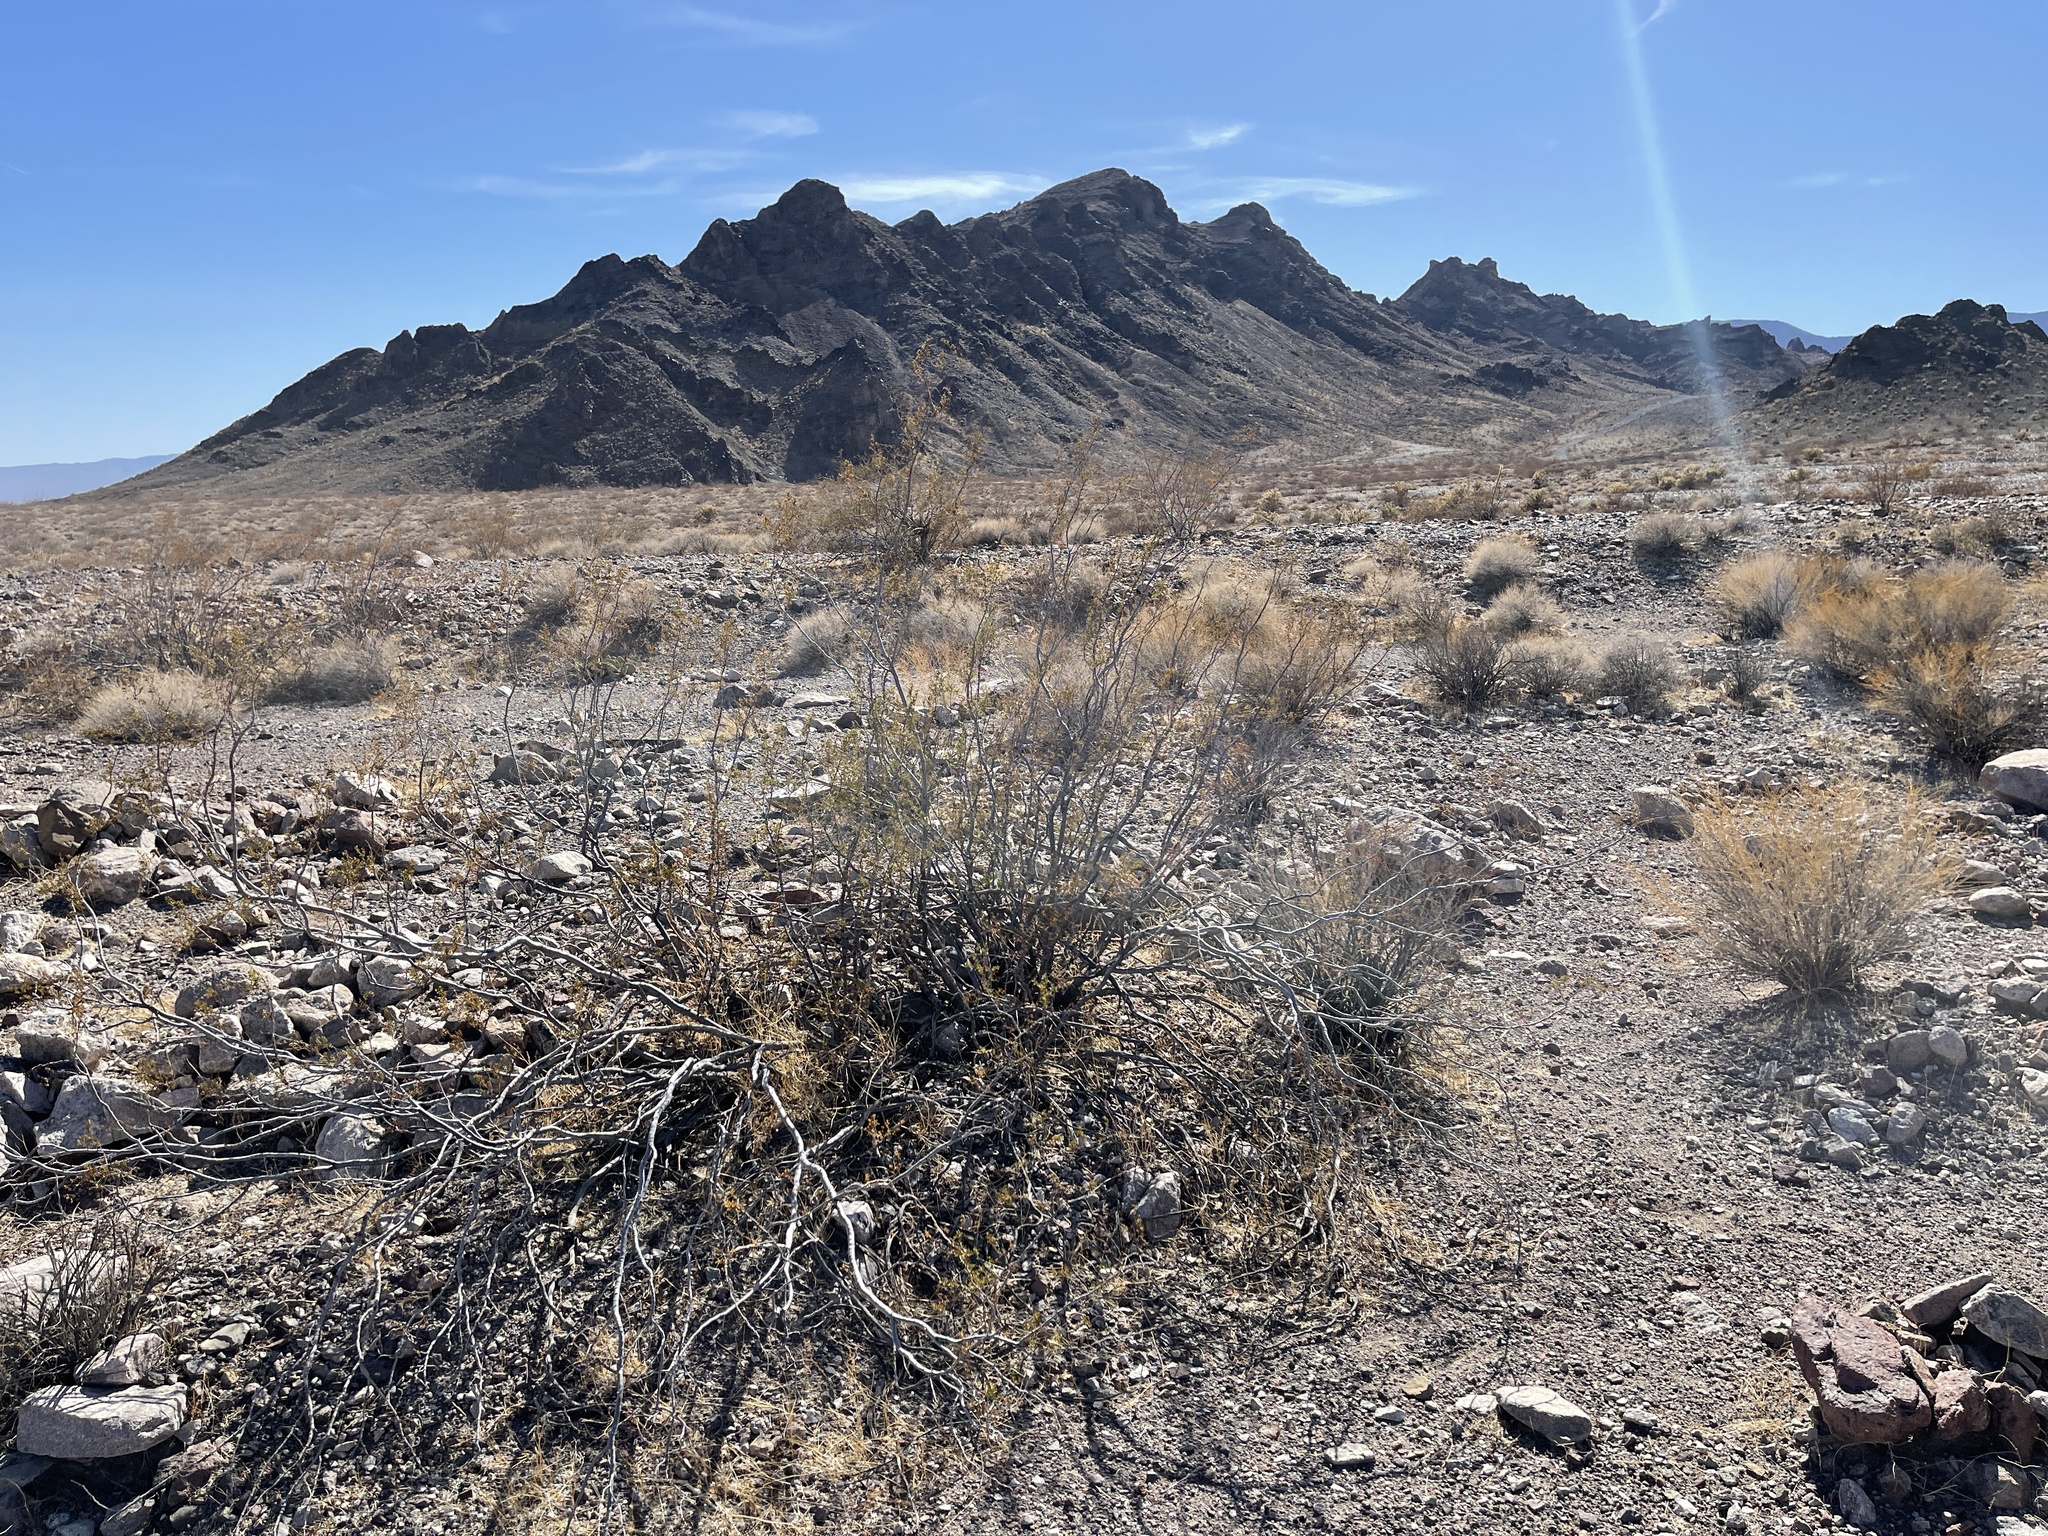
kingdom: Plantae
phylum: Tracheophyta
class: Magnoliopsida
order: Zygophyllales
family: Zygophyllaceae
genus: Larrea
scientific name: Larrea tridentata
